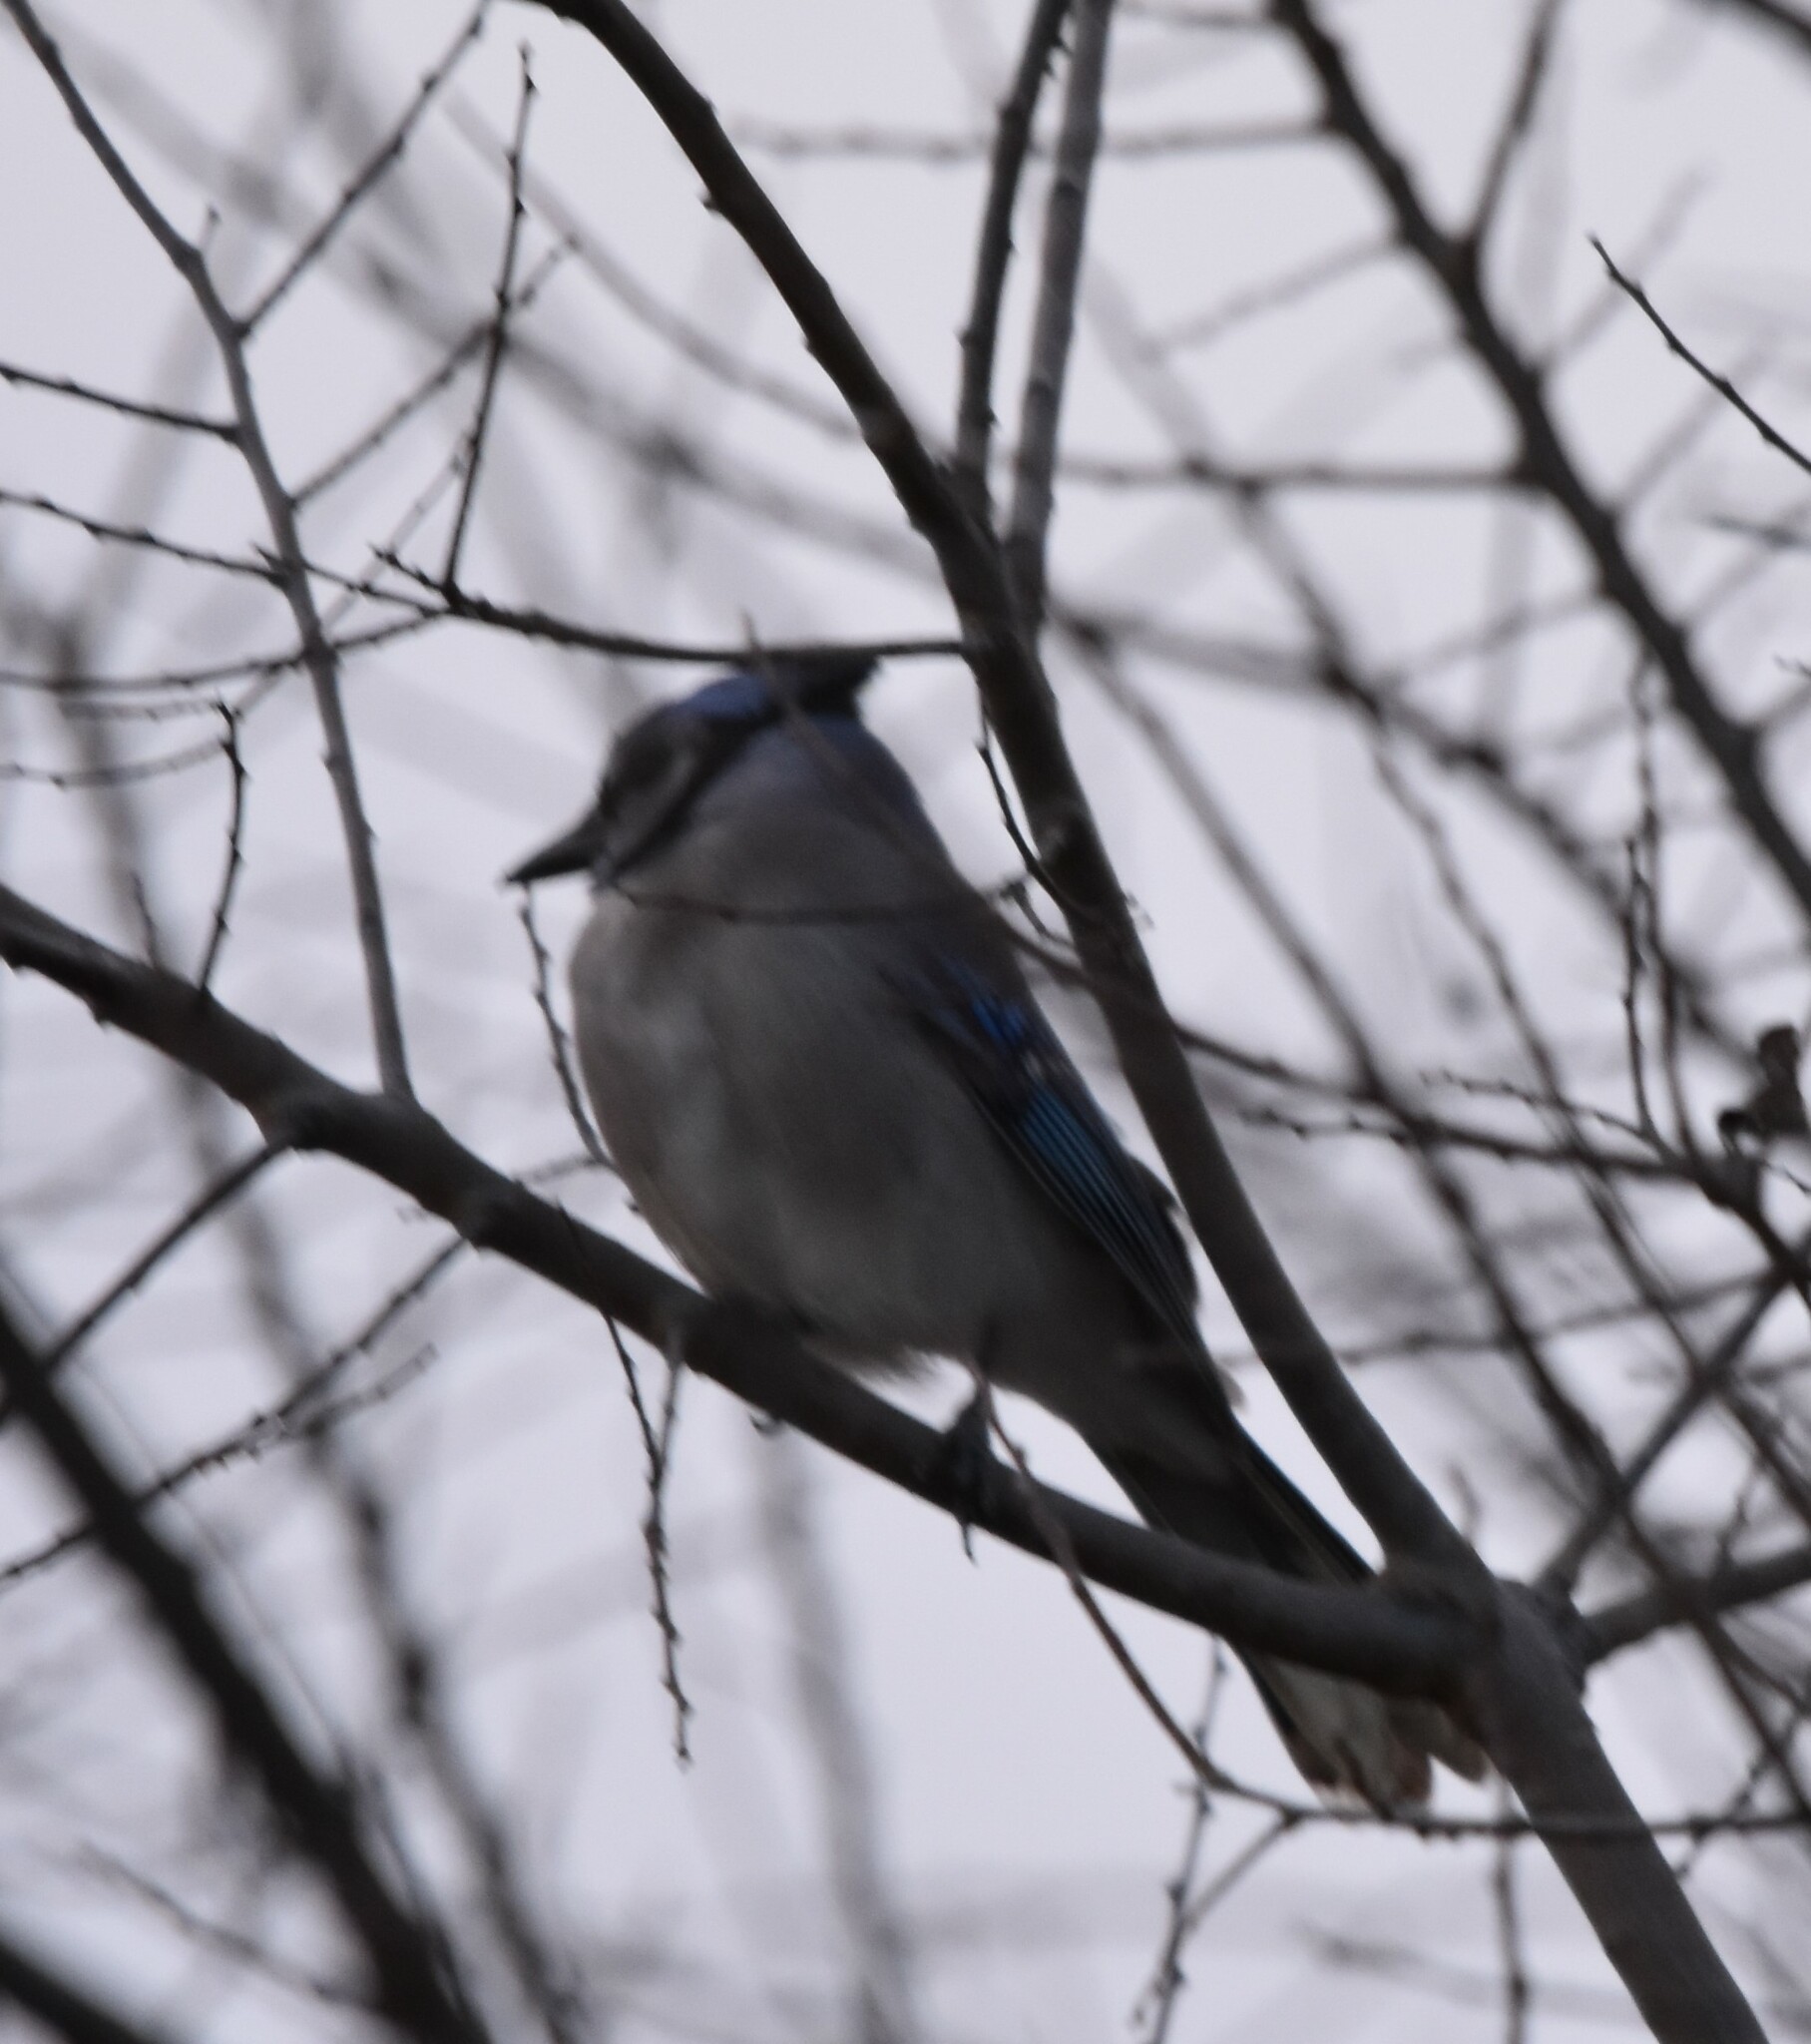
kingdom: Animalia
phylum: Chordata
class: Aves
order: Passeriformes
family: Corvidae
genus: Cyanocitta
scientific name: Cyanocitta cristata
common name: Blue jay
